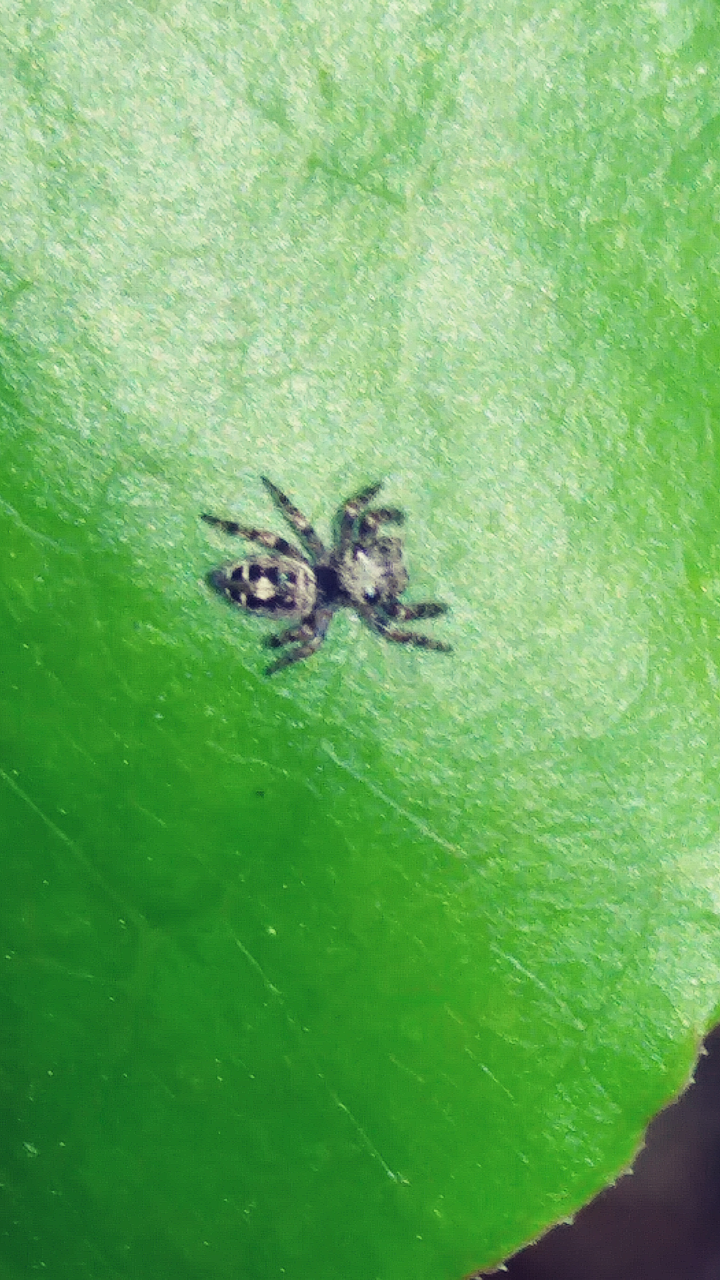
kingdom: Animalia
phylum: Arthropoda
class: Arachnida
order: Araneae
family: Salticidae
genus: Phidippus
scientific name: Phidippus putnami
